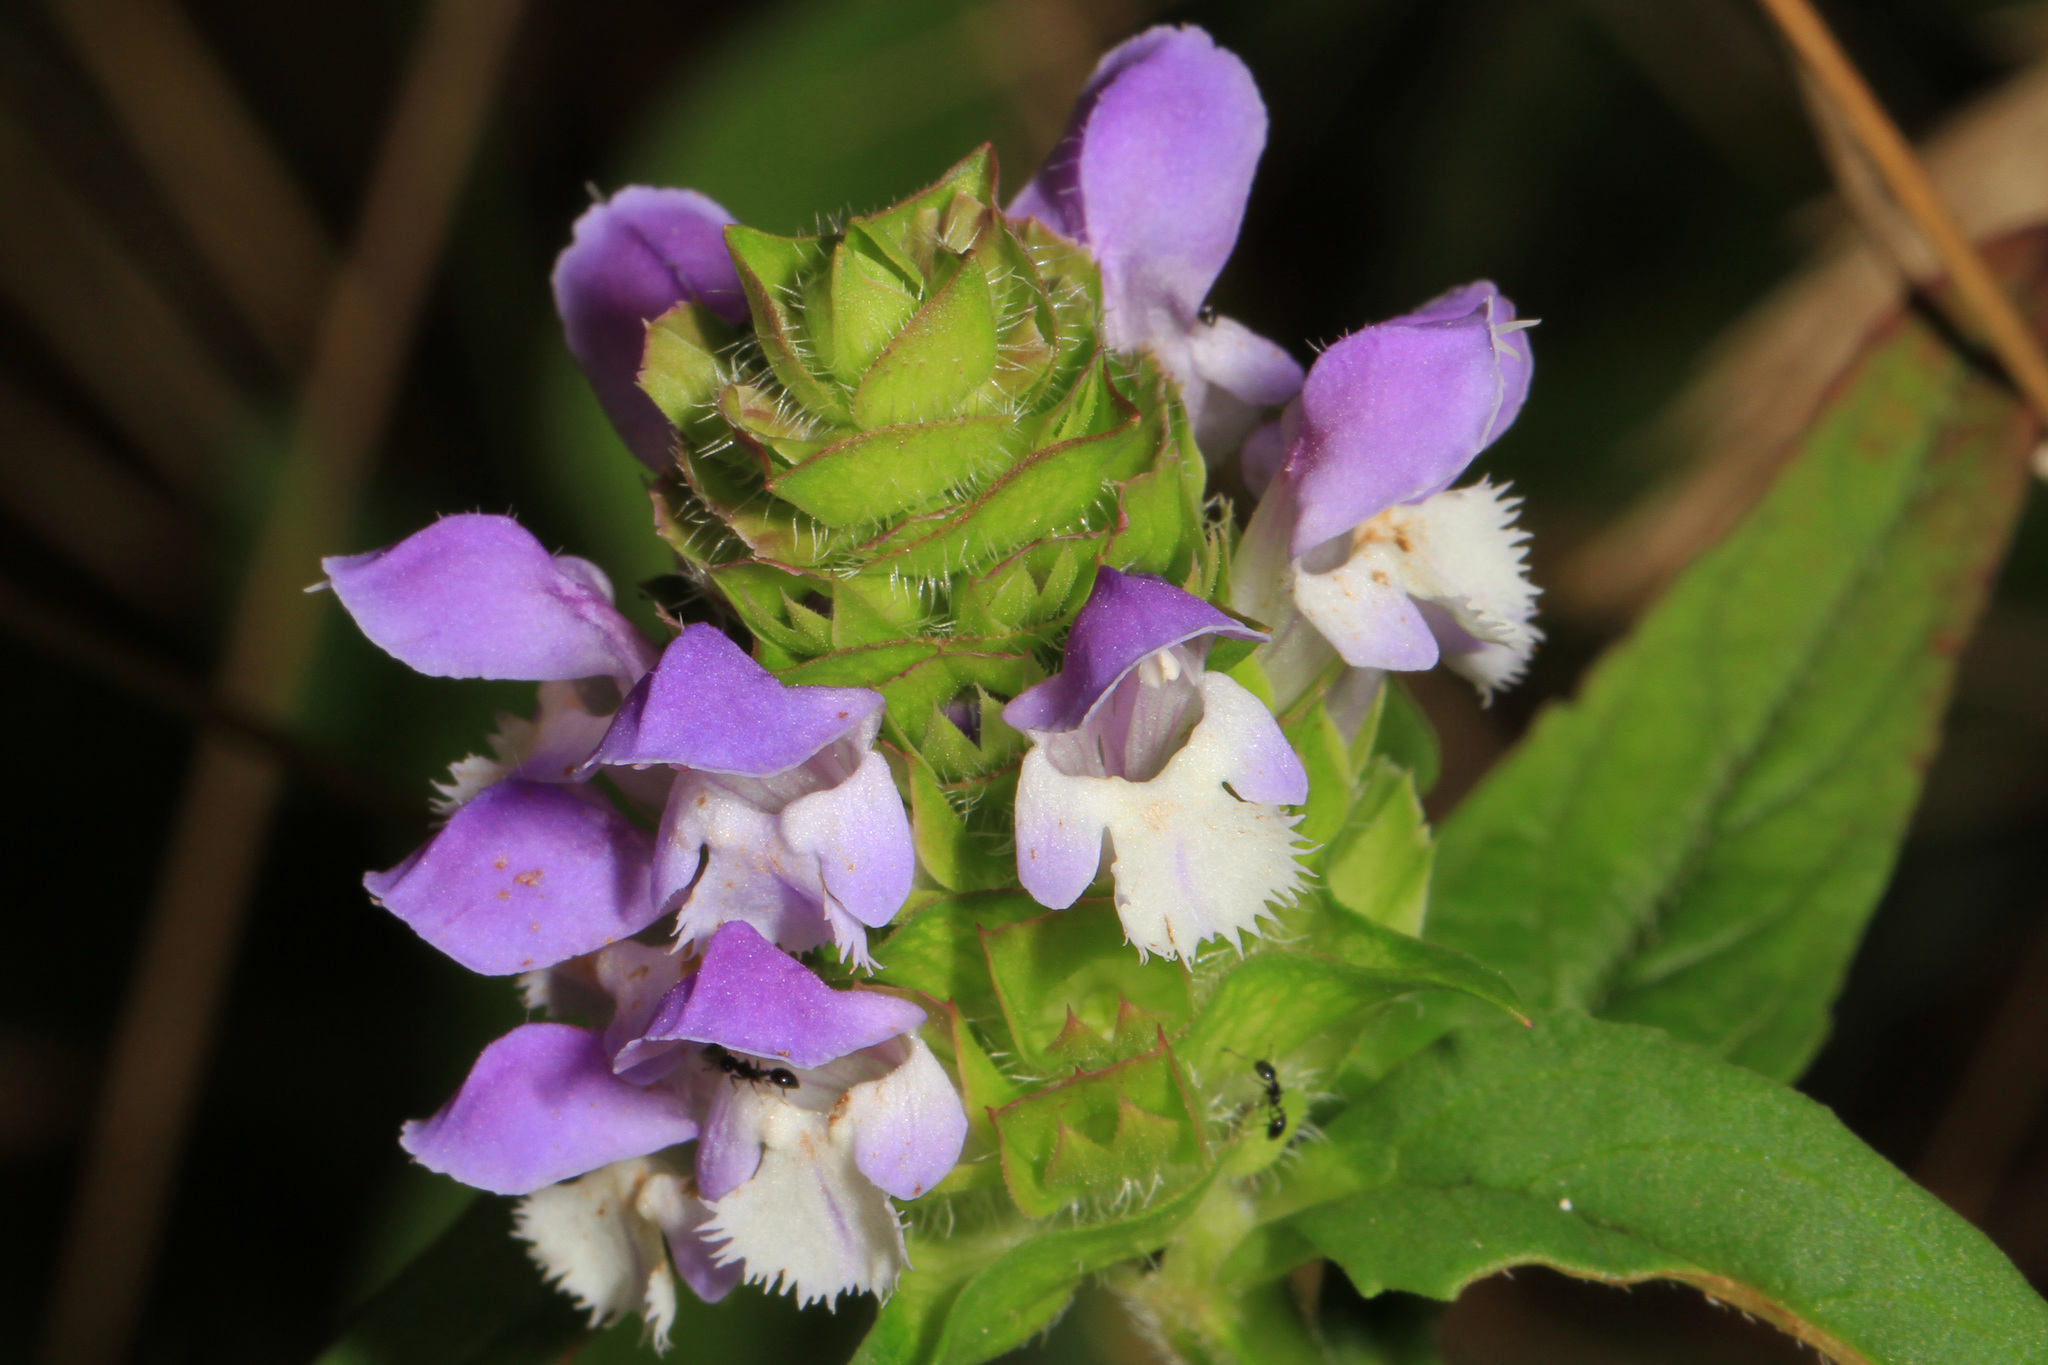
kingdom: Plantae
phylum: Tracheophyta
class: Magnoliopsida
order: Lamiales
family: Lamiaceae
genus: Prunella
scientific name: Prunella vulgaris
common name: Heal-all
